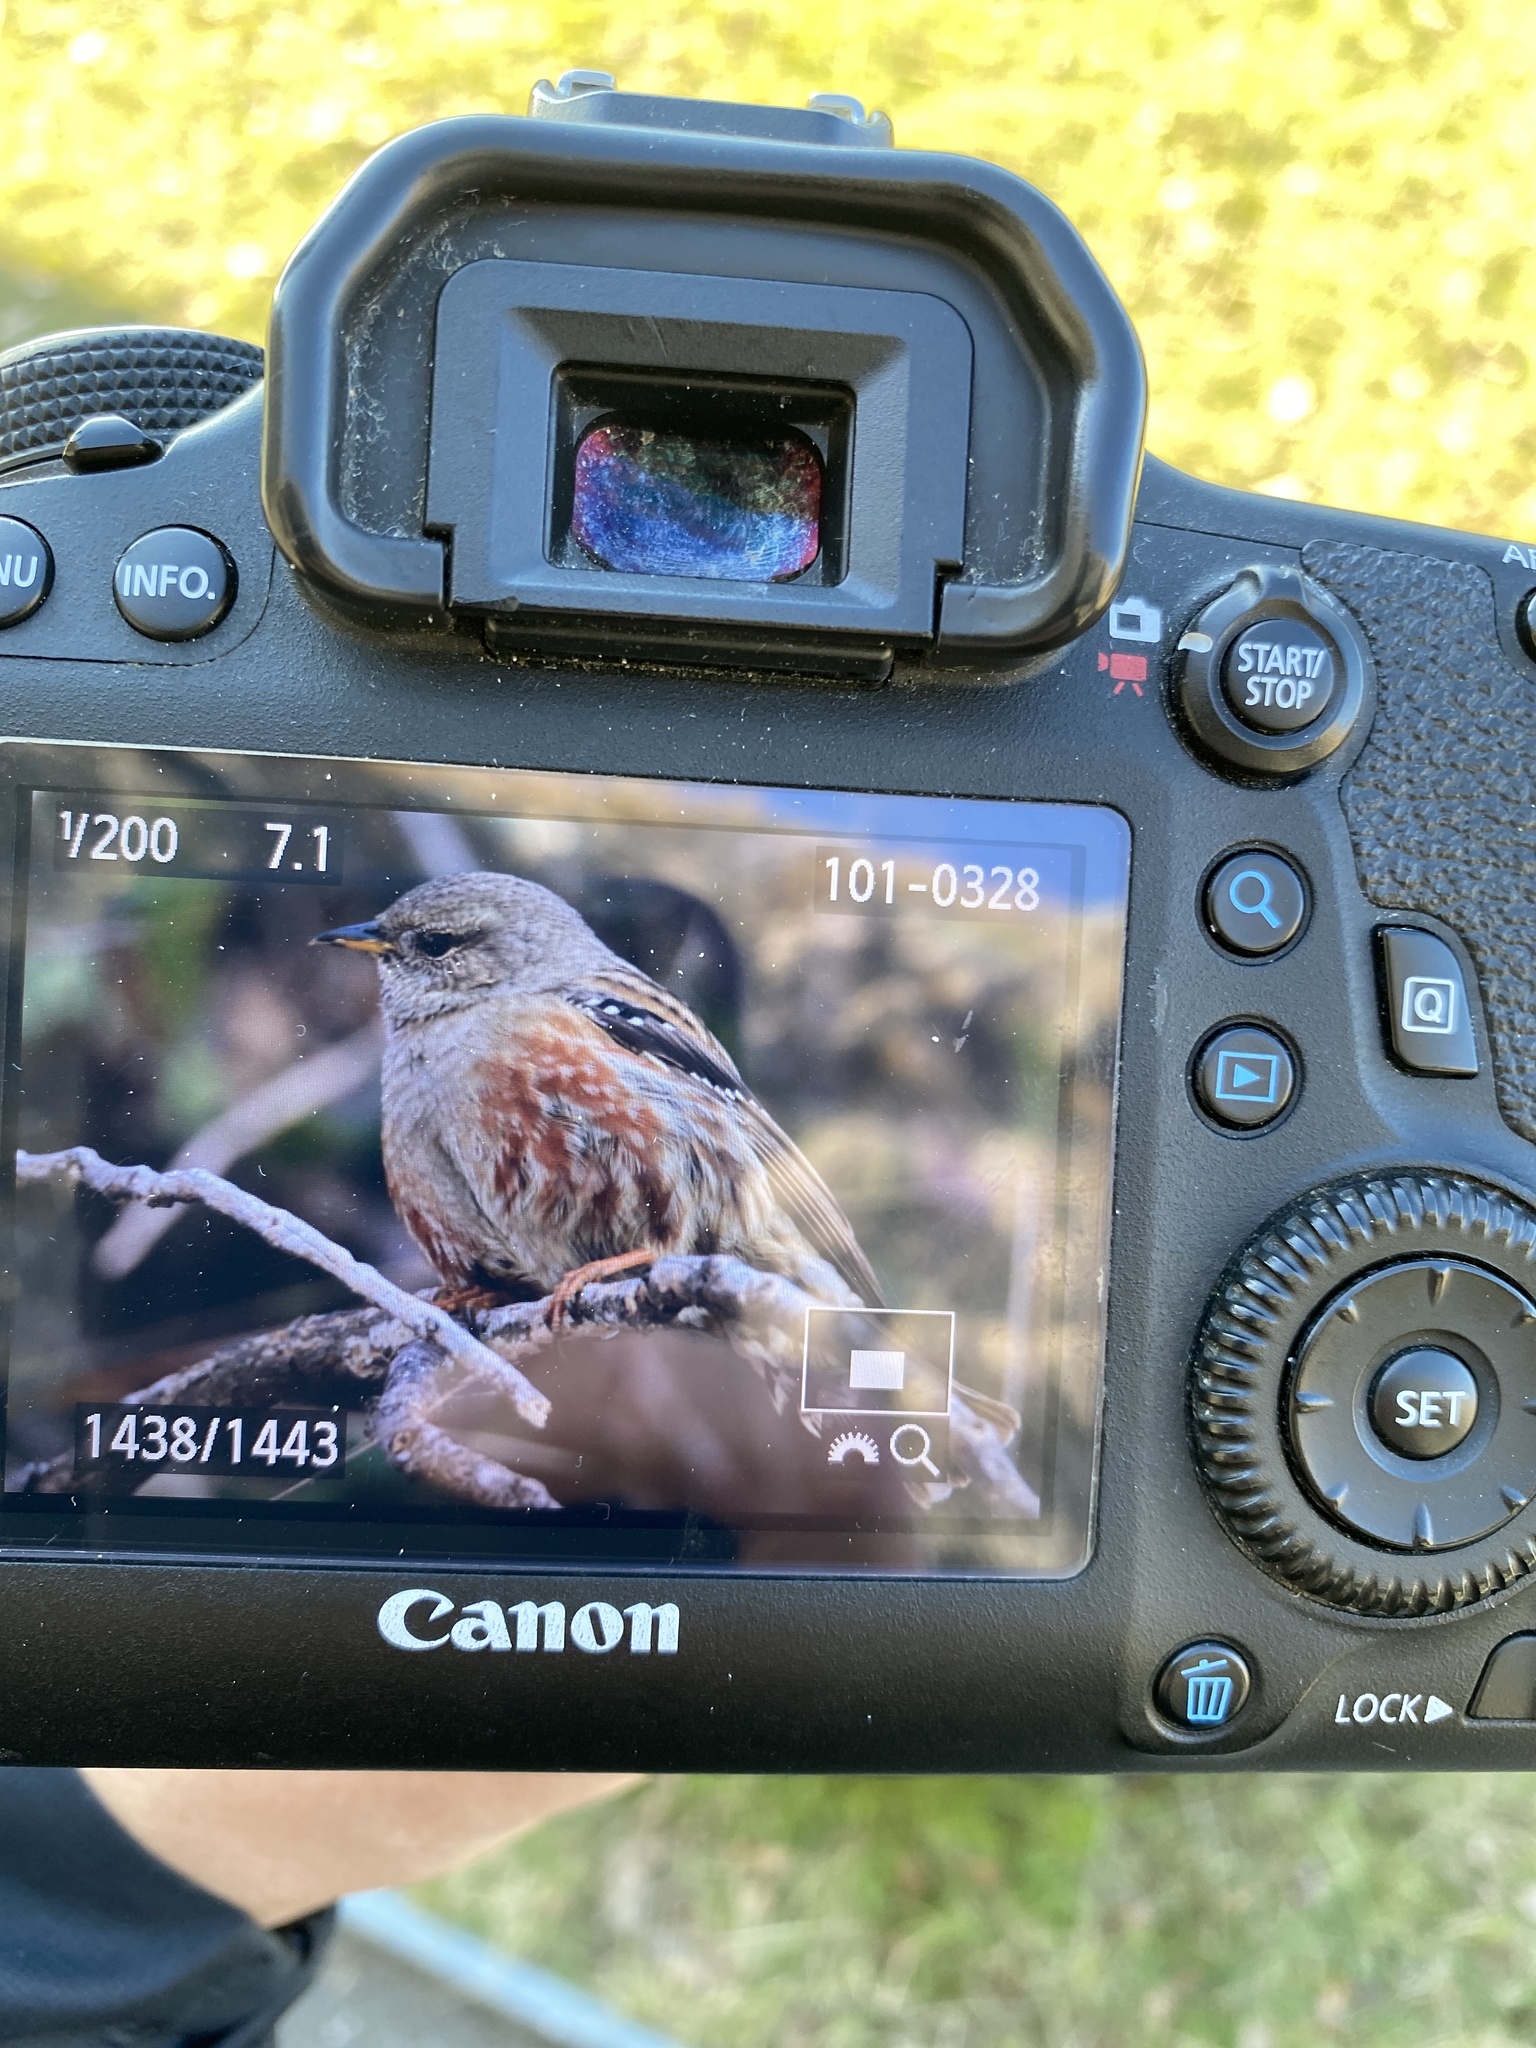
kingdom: Animalia
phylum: Chordata
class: Aves
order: Passeriformes
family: Prunellidae
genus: Prunella
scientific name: Prunella collaris
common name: Alpine accentor
